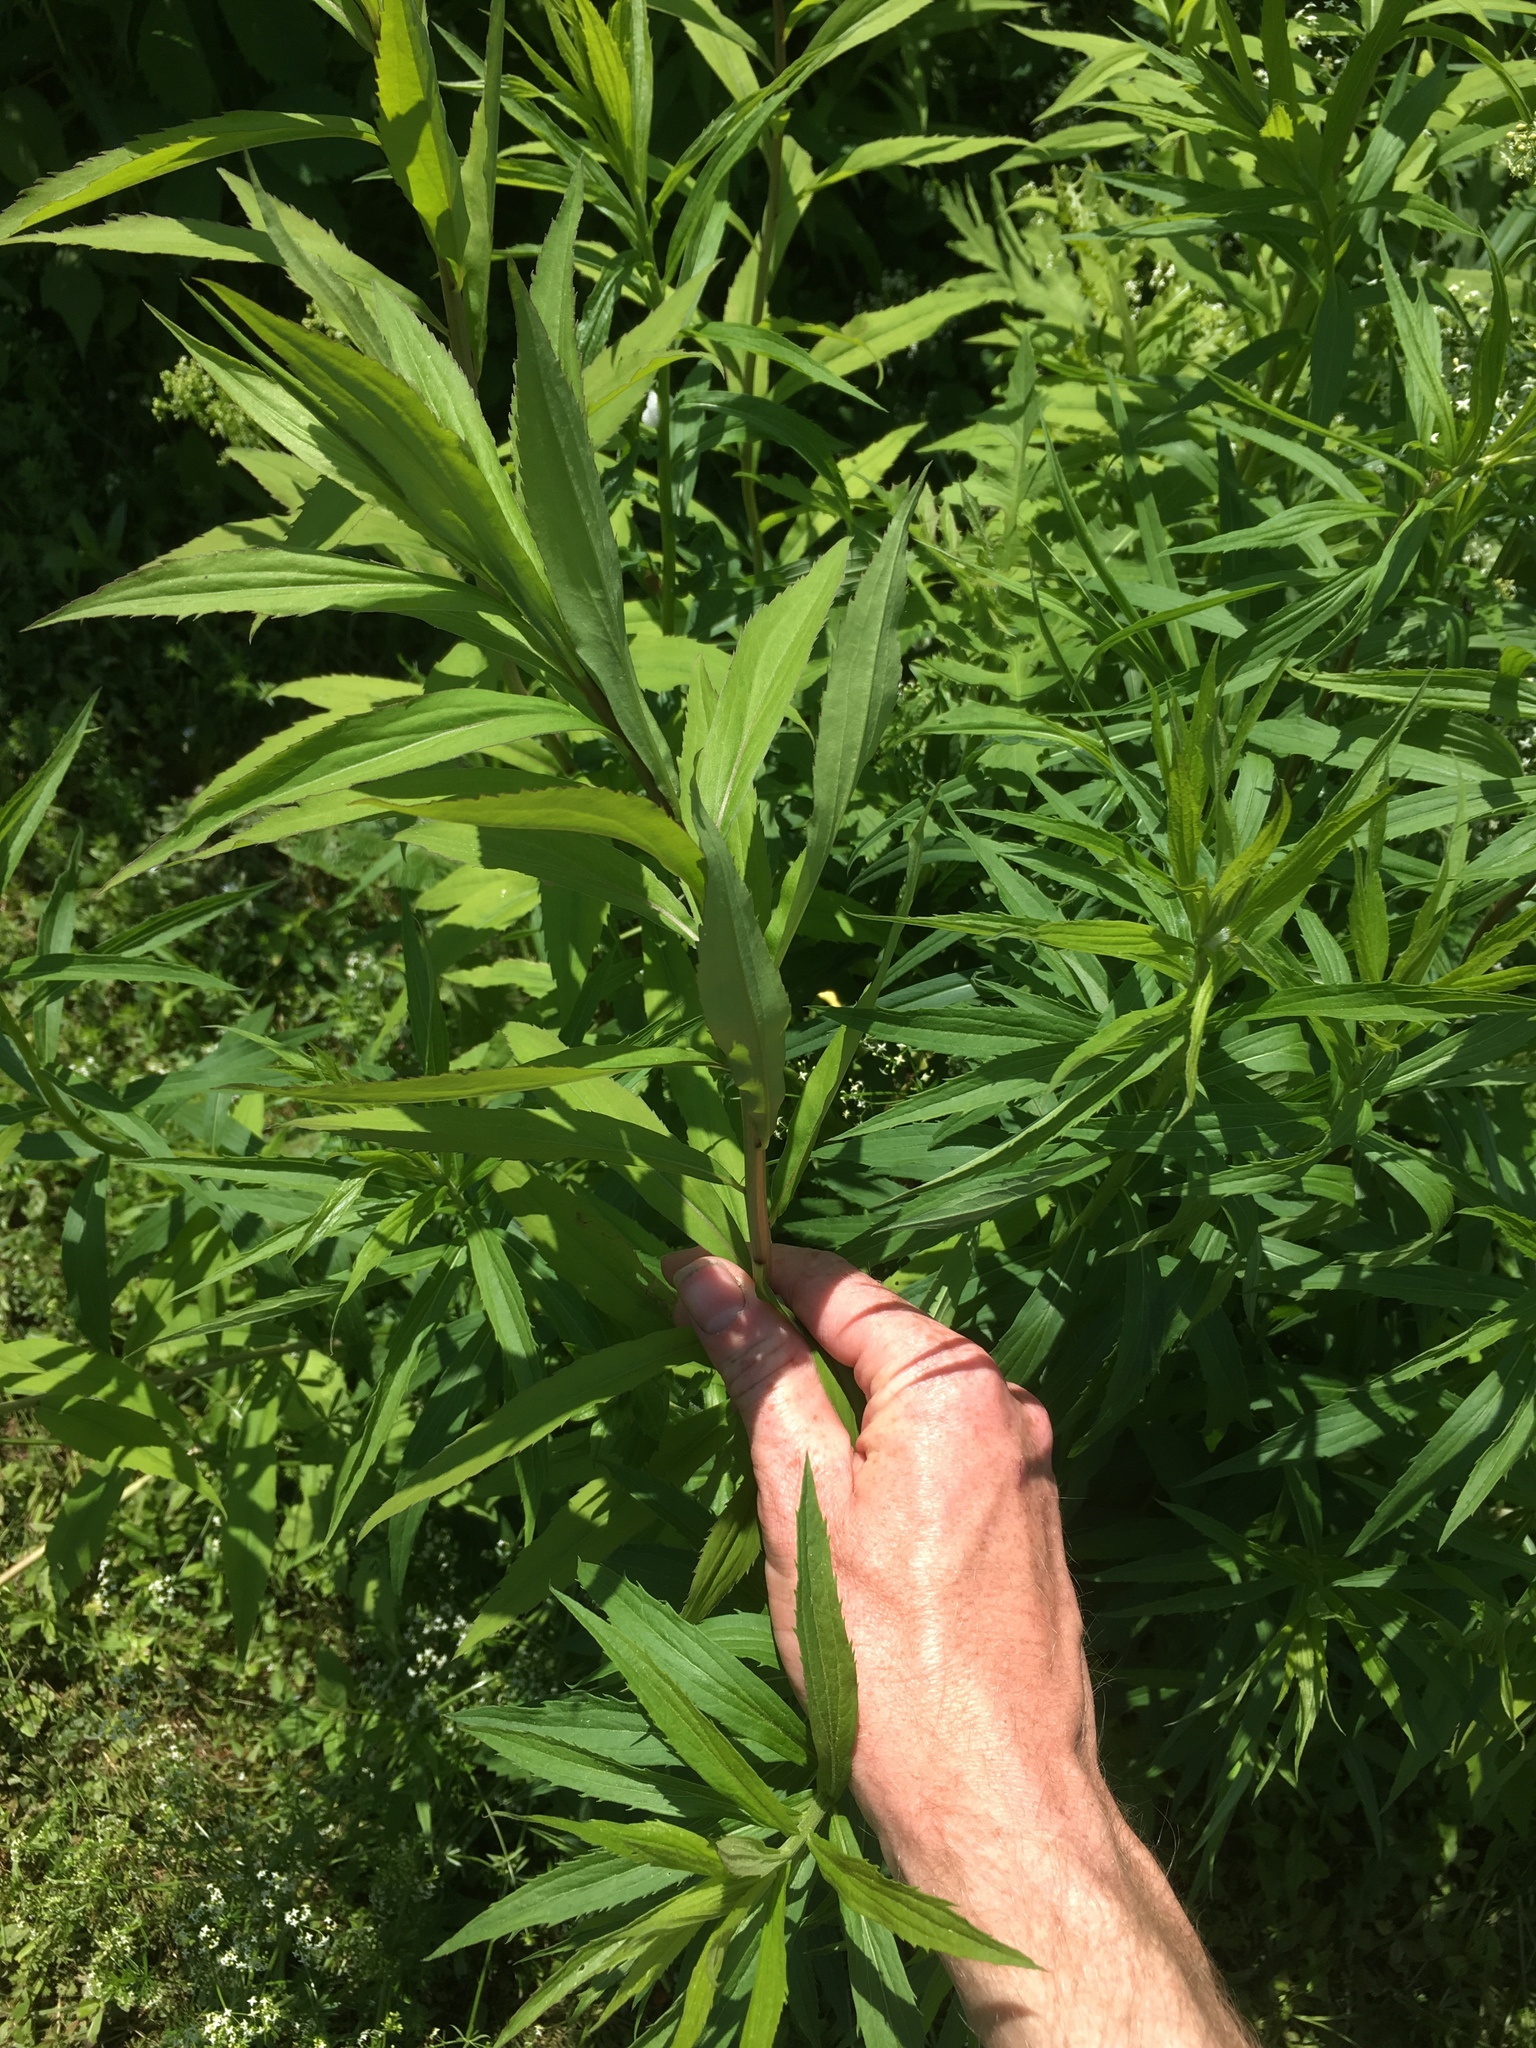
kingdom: Plantae
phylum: Tracheophyta
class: Magnoliopsida
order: Asterales
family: Asteraceae
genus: Solidago
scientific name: Solidago gigantea
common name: Giant goldenrod
